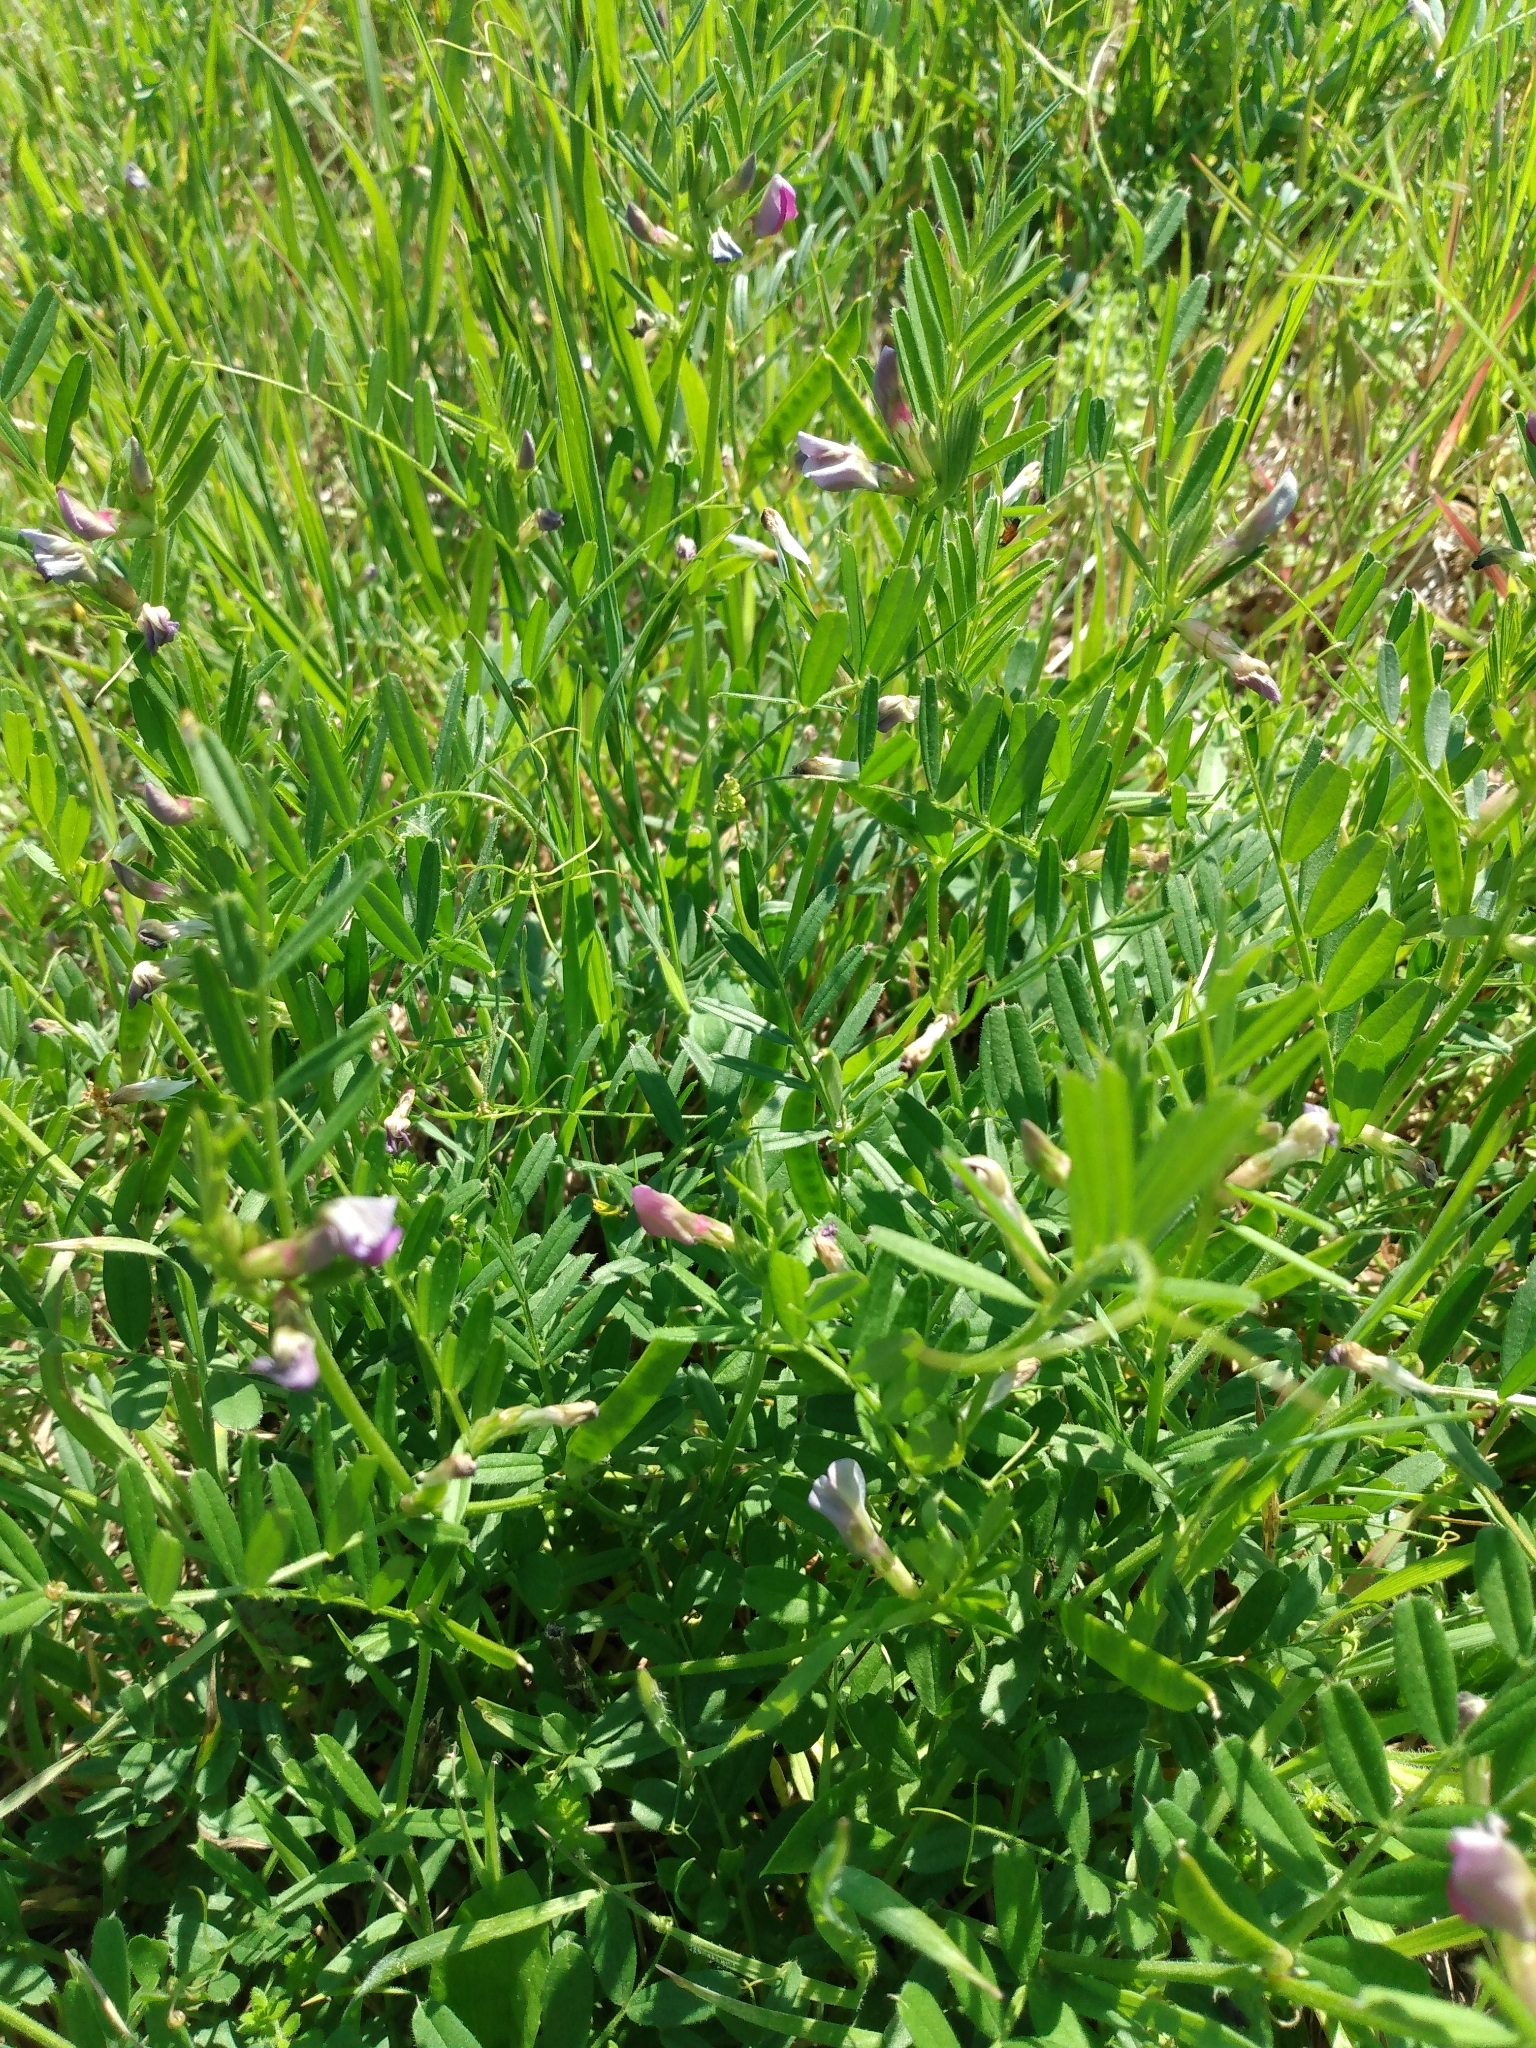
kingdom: Plantae
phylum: Tracheophyta
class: Magnoliopsida
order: Fabales
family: Fabaceae
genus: Vicia
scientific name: Vicia sativa
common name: Garden vetch
